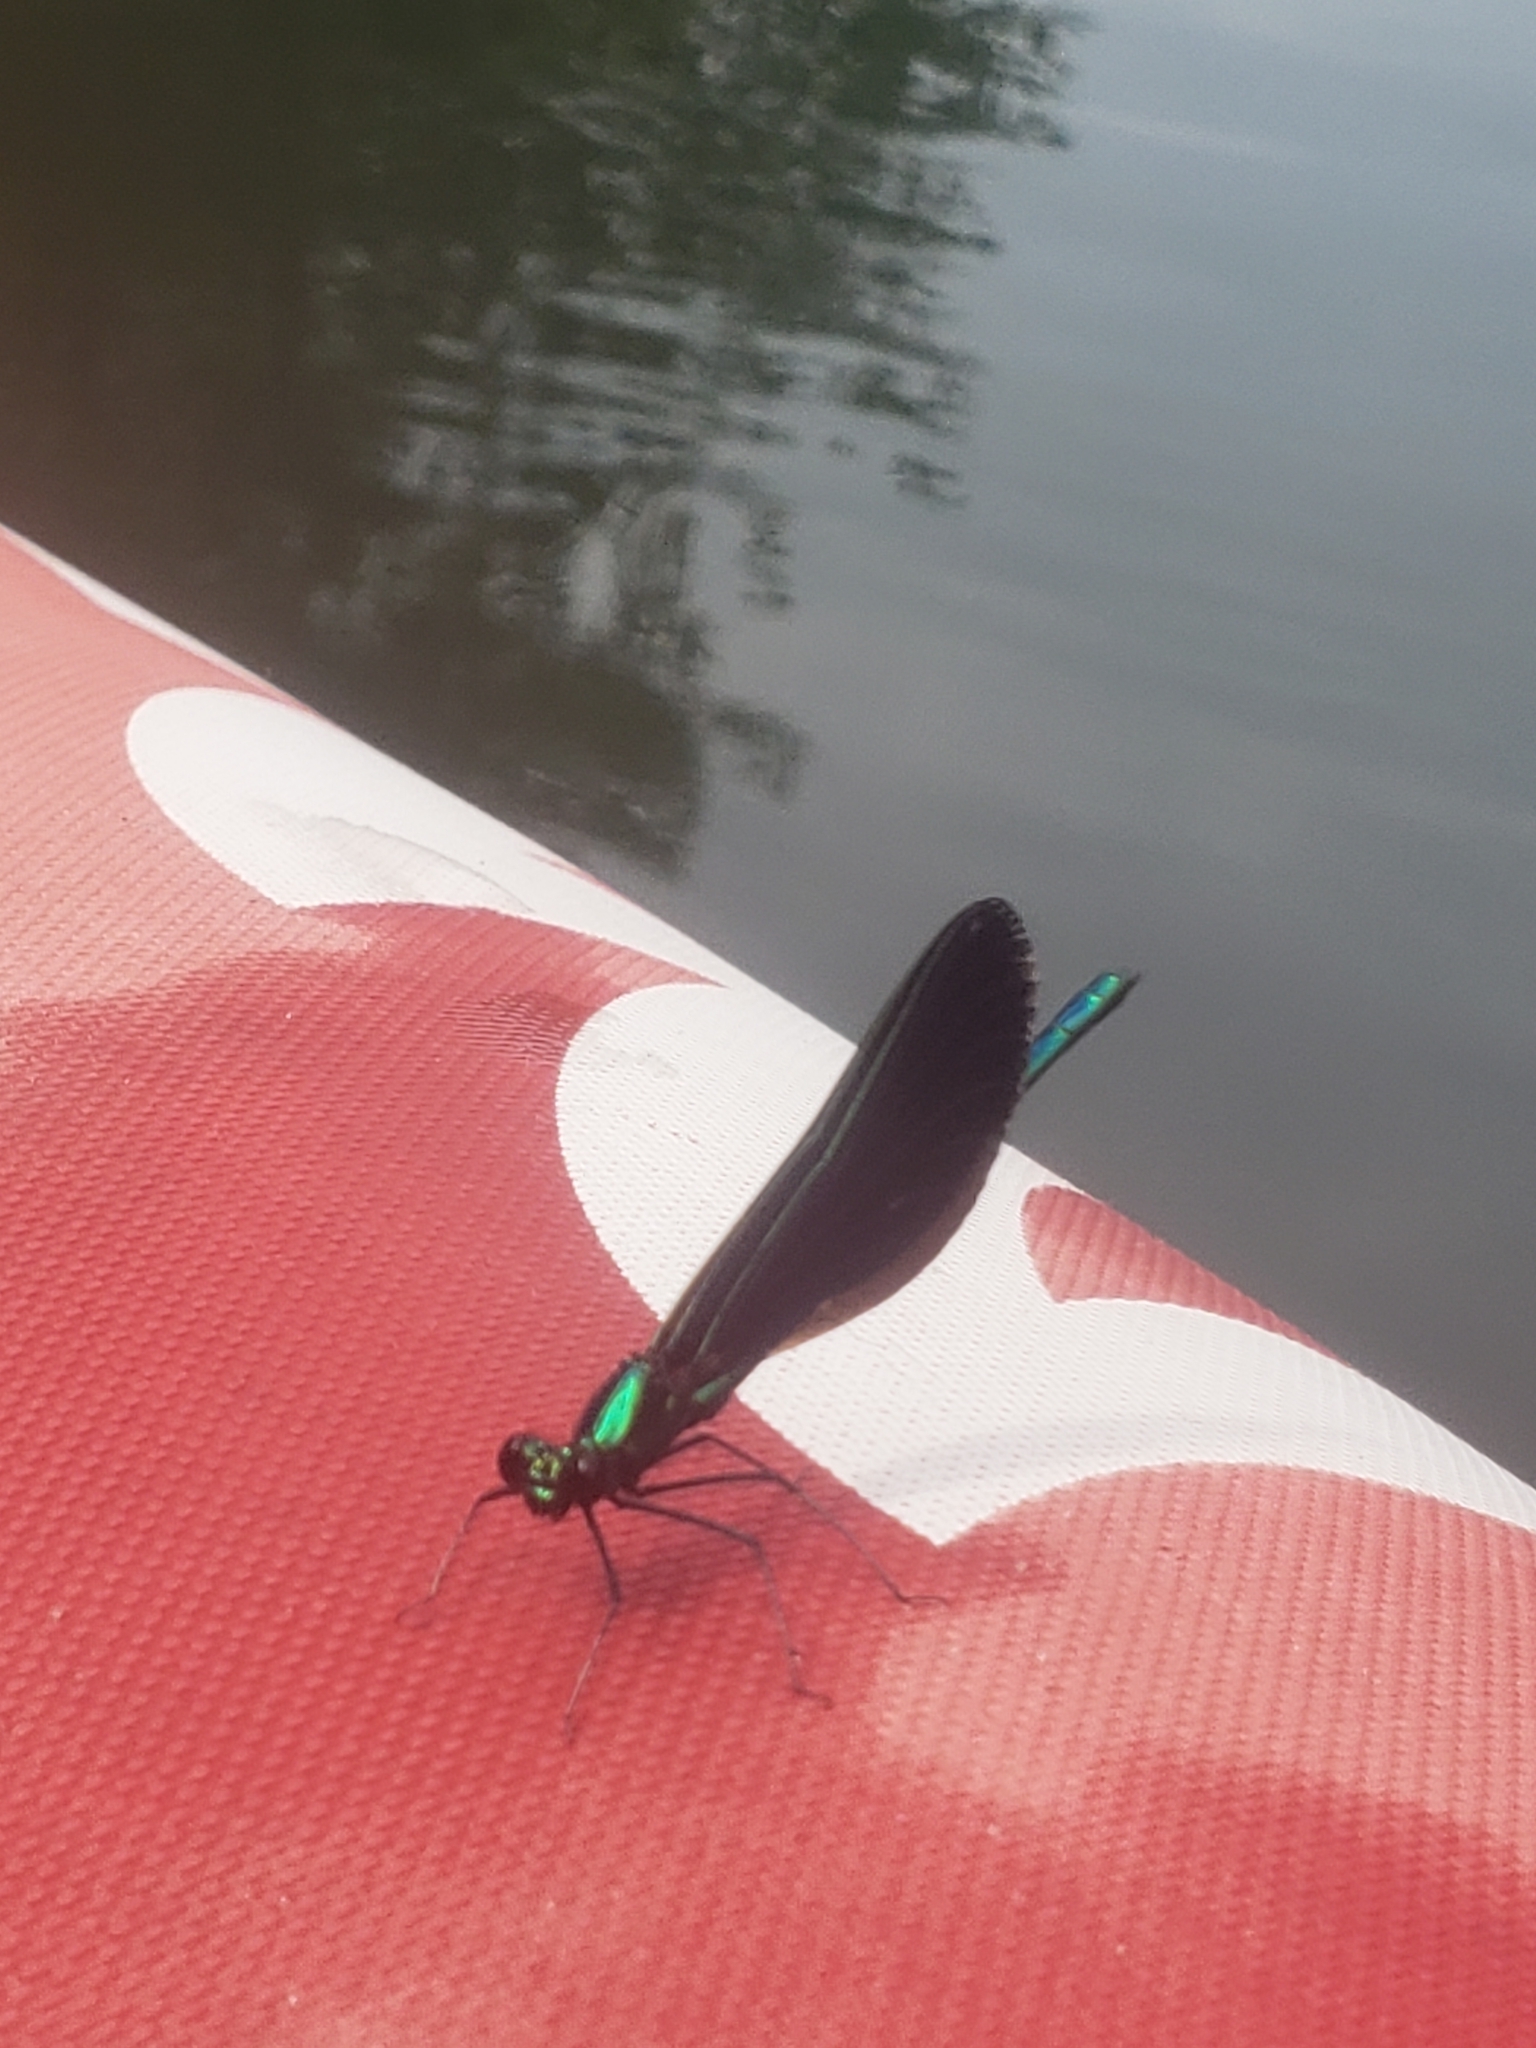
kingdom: Animalia
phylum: Arthropoda
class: Insecta
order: Odonata
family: Calopterygidae
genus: Calopteryx
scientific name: Calopteryx maculata
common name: Ebony jewelwing
